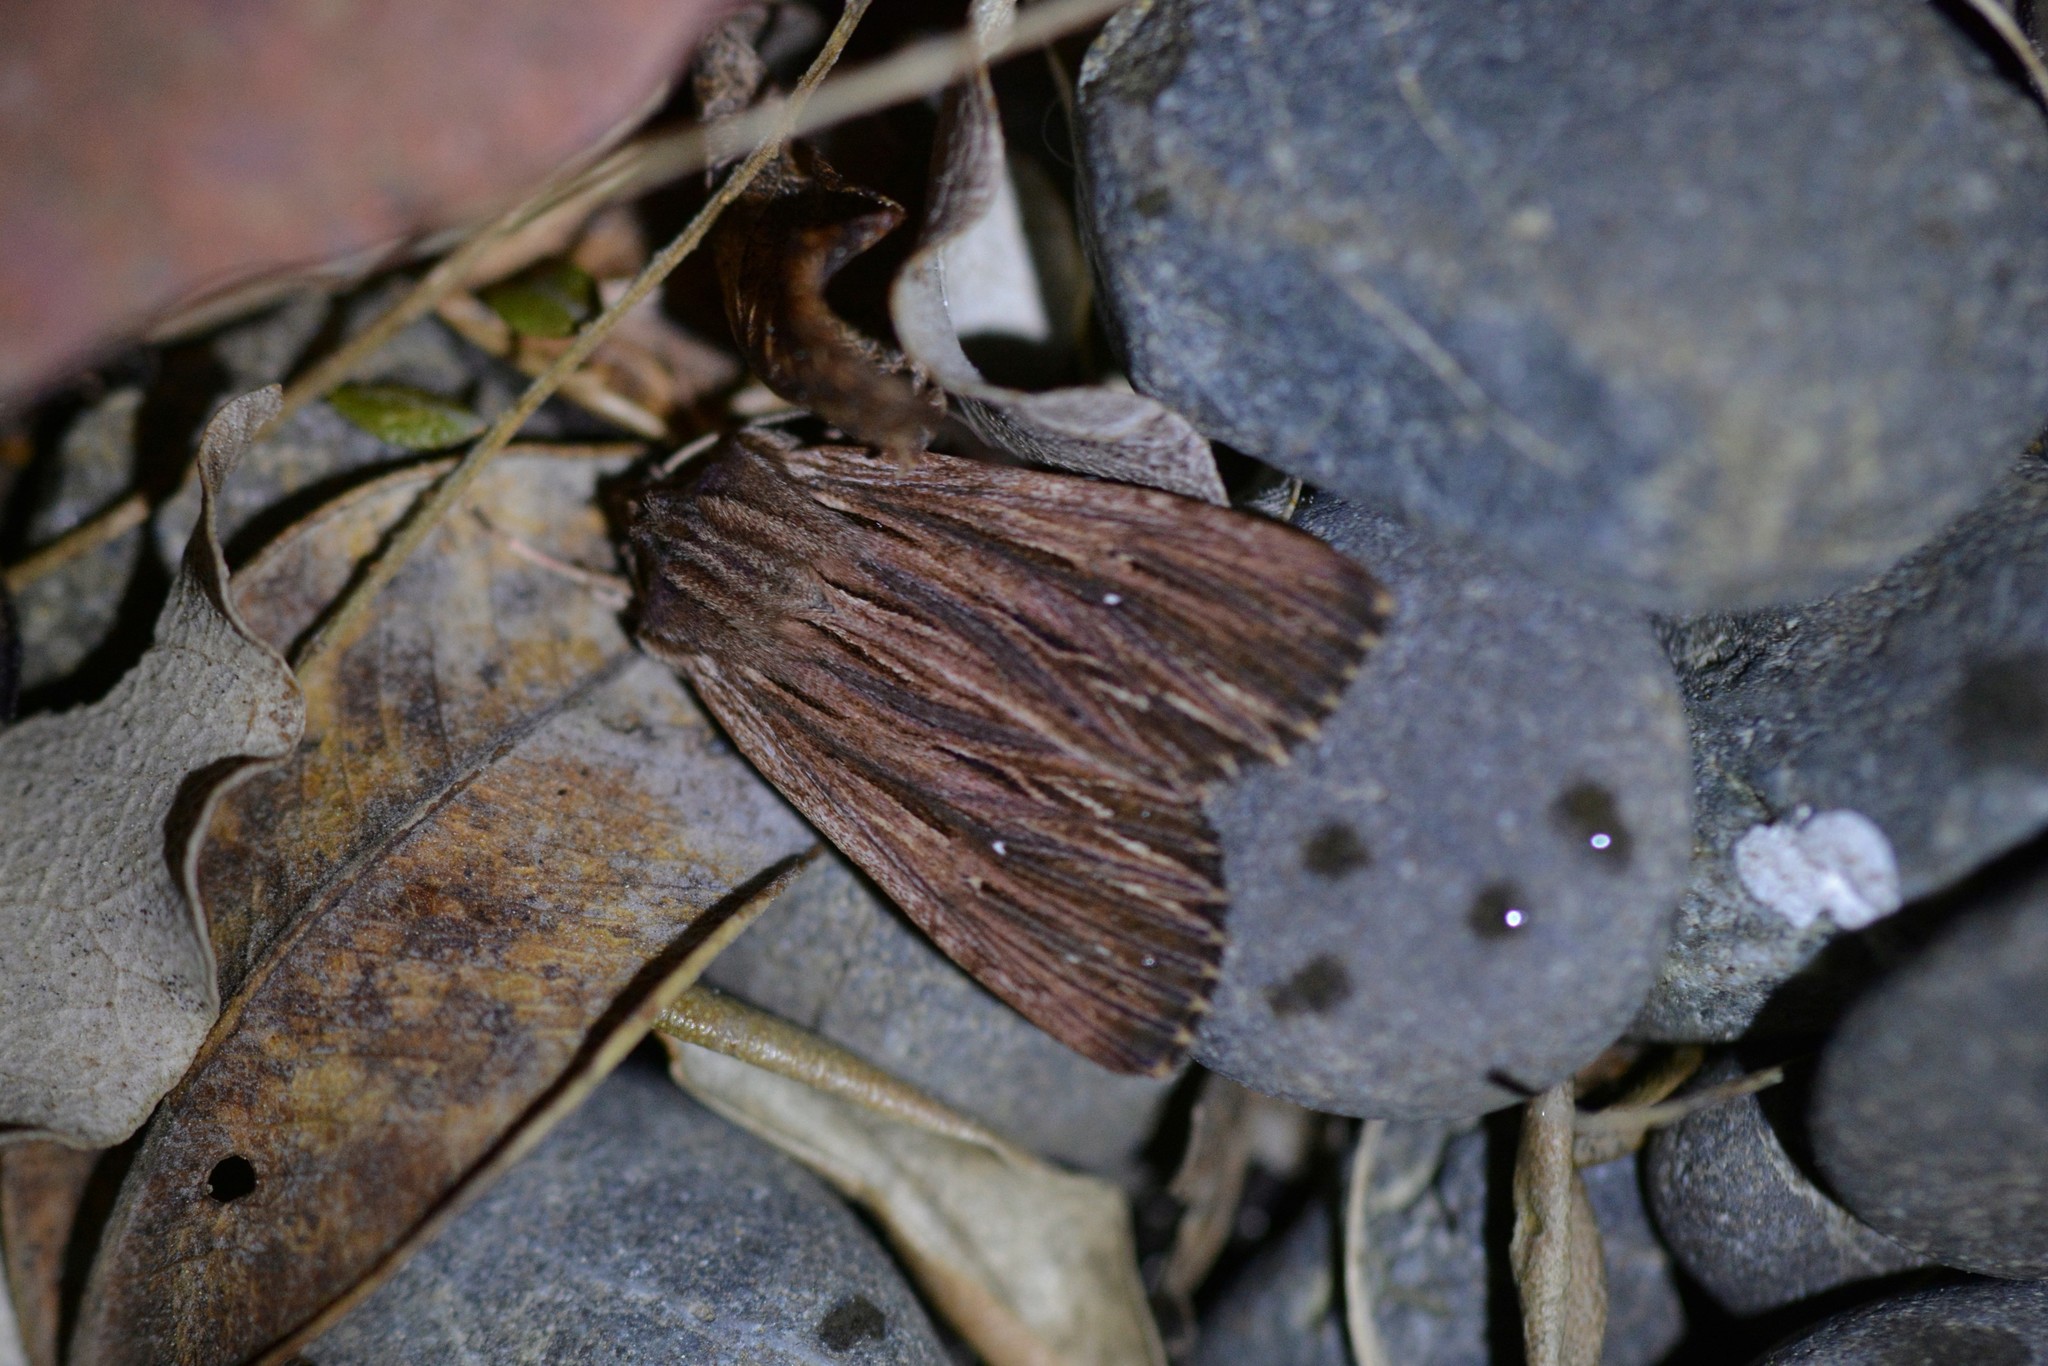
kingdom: Animalia
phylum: Arthropoda
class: Insecta
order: Lepidoptera
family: Noctuidae
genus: Ichneutica
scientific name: Ichneutica
